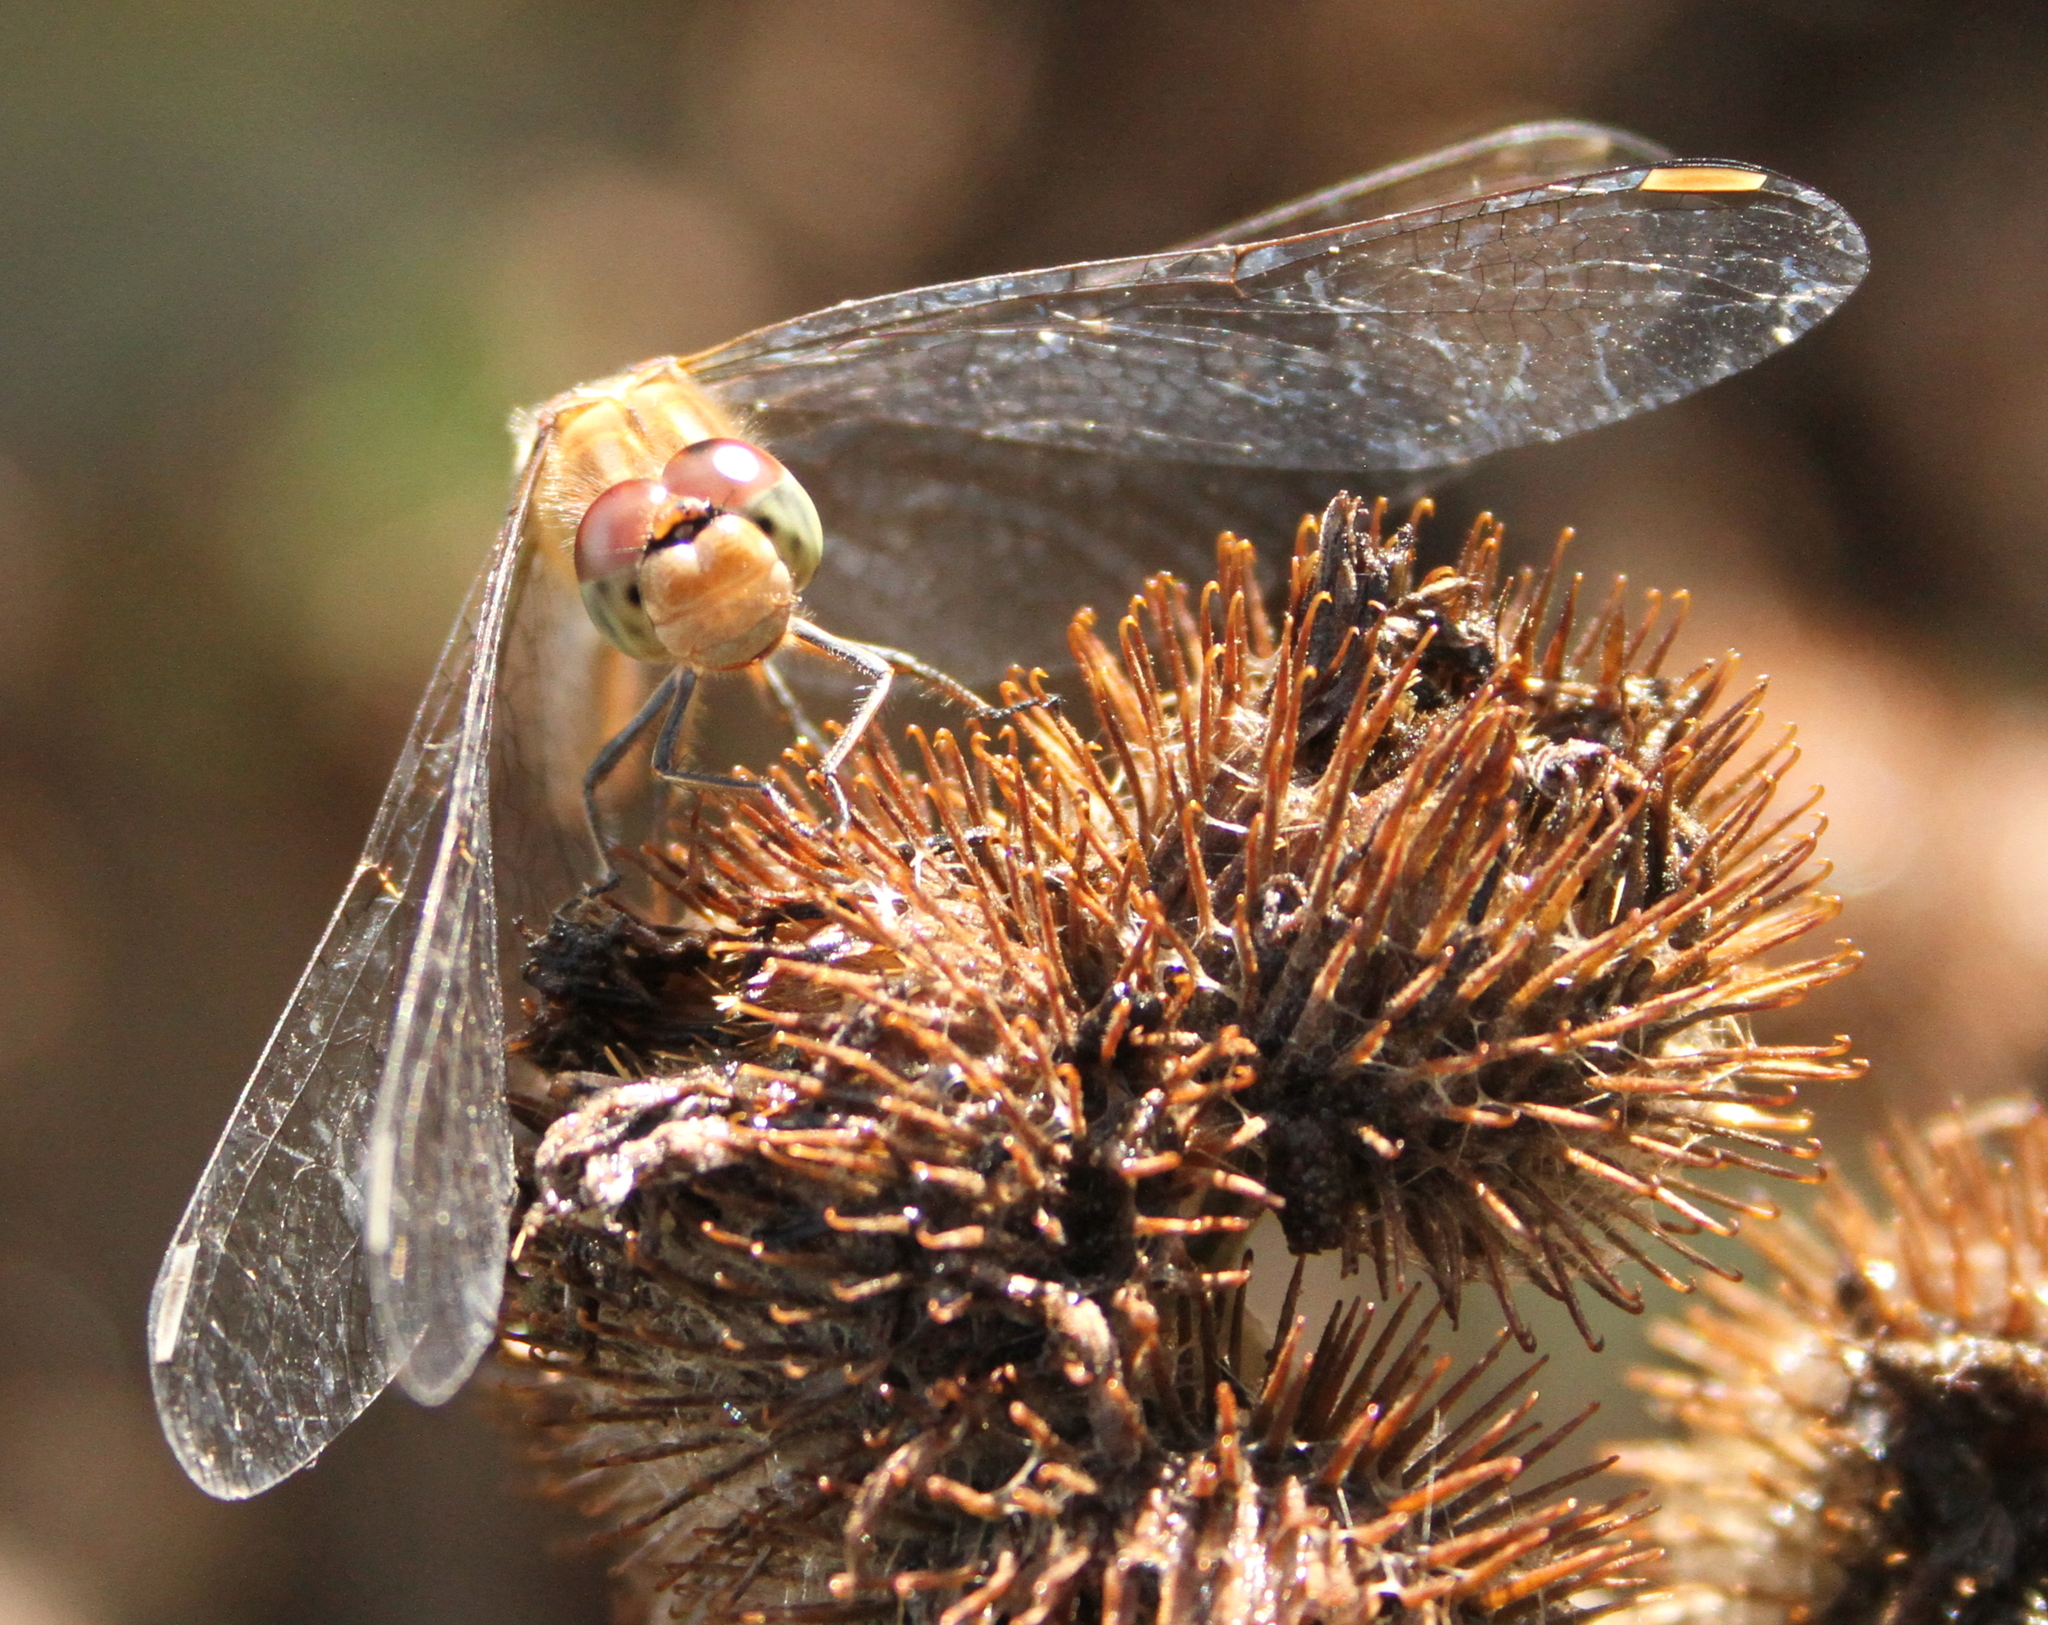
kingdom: Animalia
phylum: Arthropoda
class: Insecta
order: Odonata
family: Libellulidae
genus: Sympetrum
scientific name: Sympetrum striolatum
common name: Common darter
